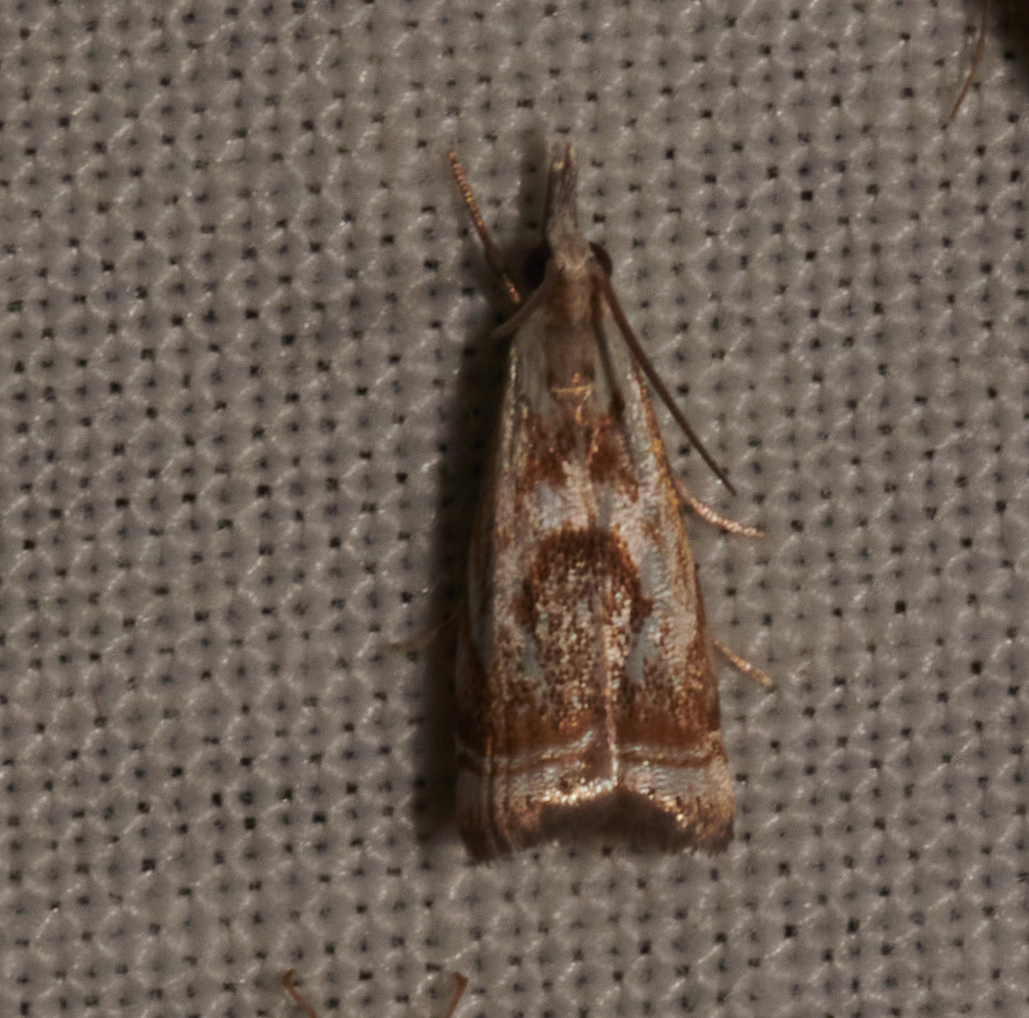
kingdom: Animalia
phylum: Arthropoda
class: Insecta
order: Lepidoptera
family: Crambidae
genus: Microcrambus
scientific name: Microcrambus elegans
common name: Elegant grass-veneer
